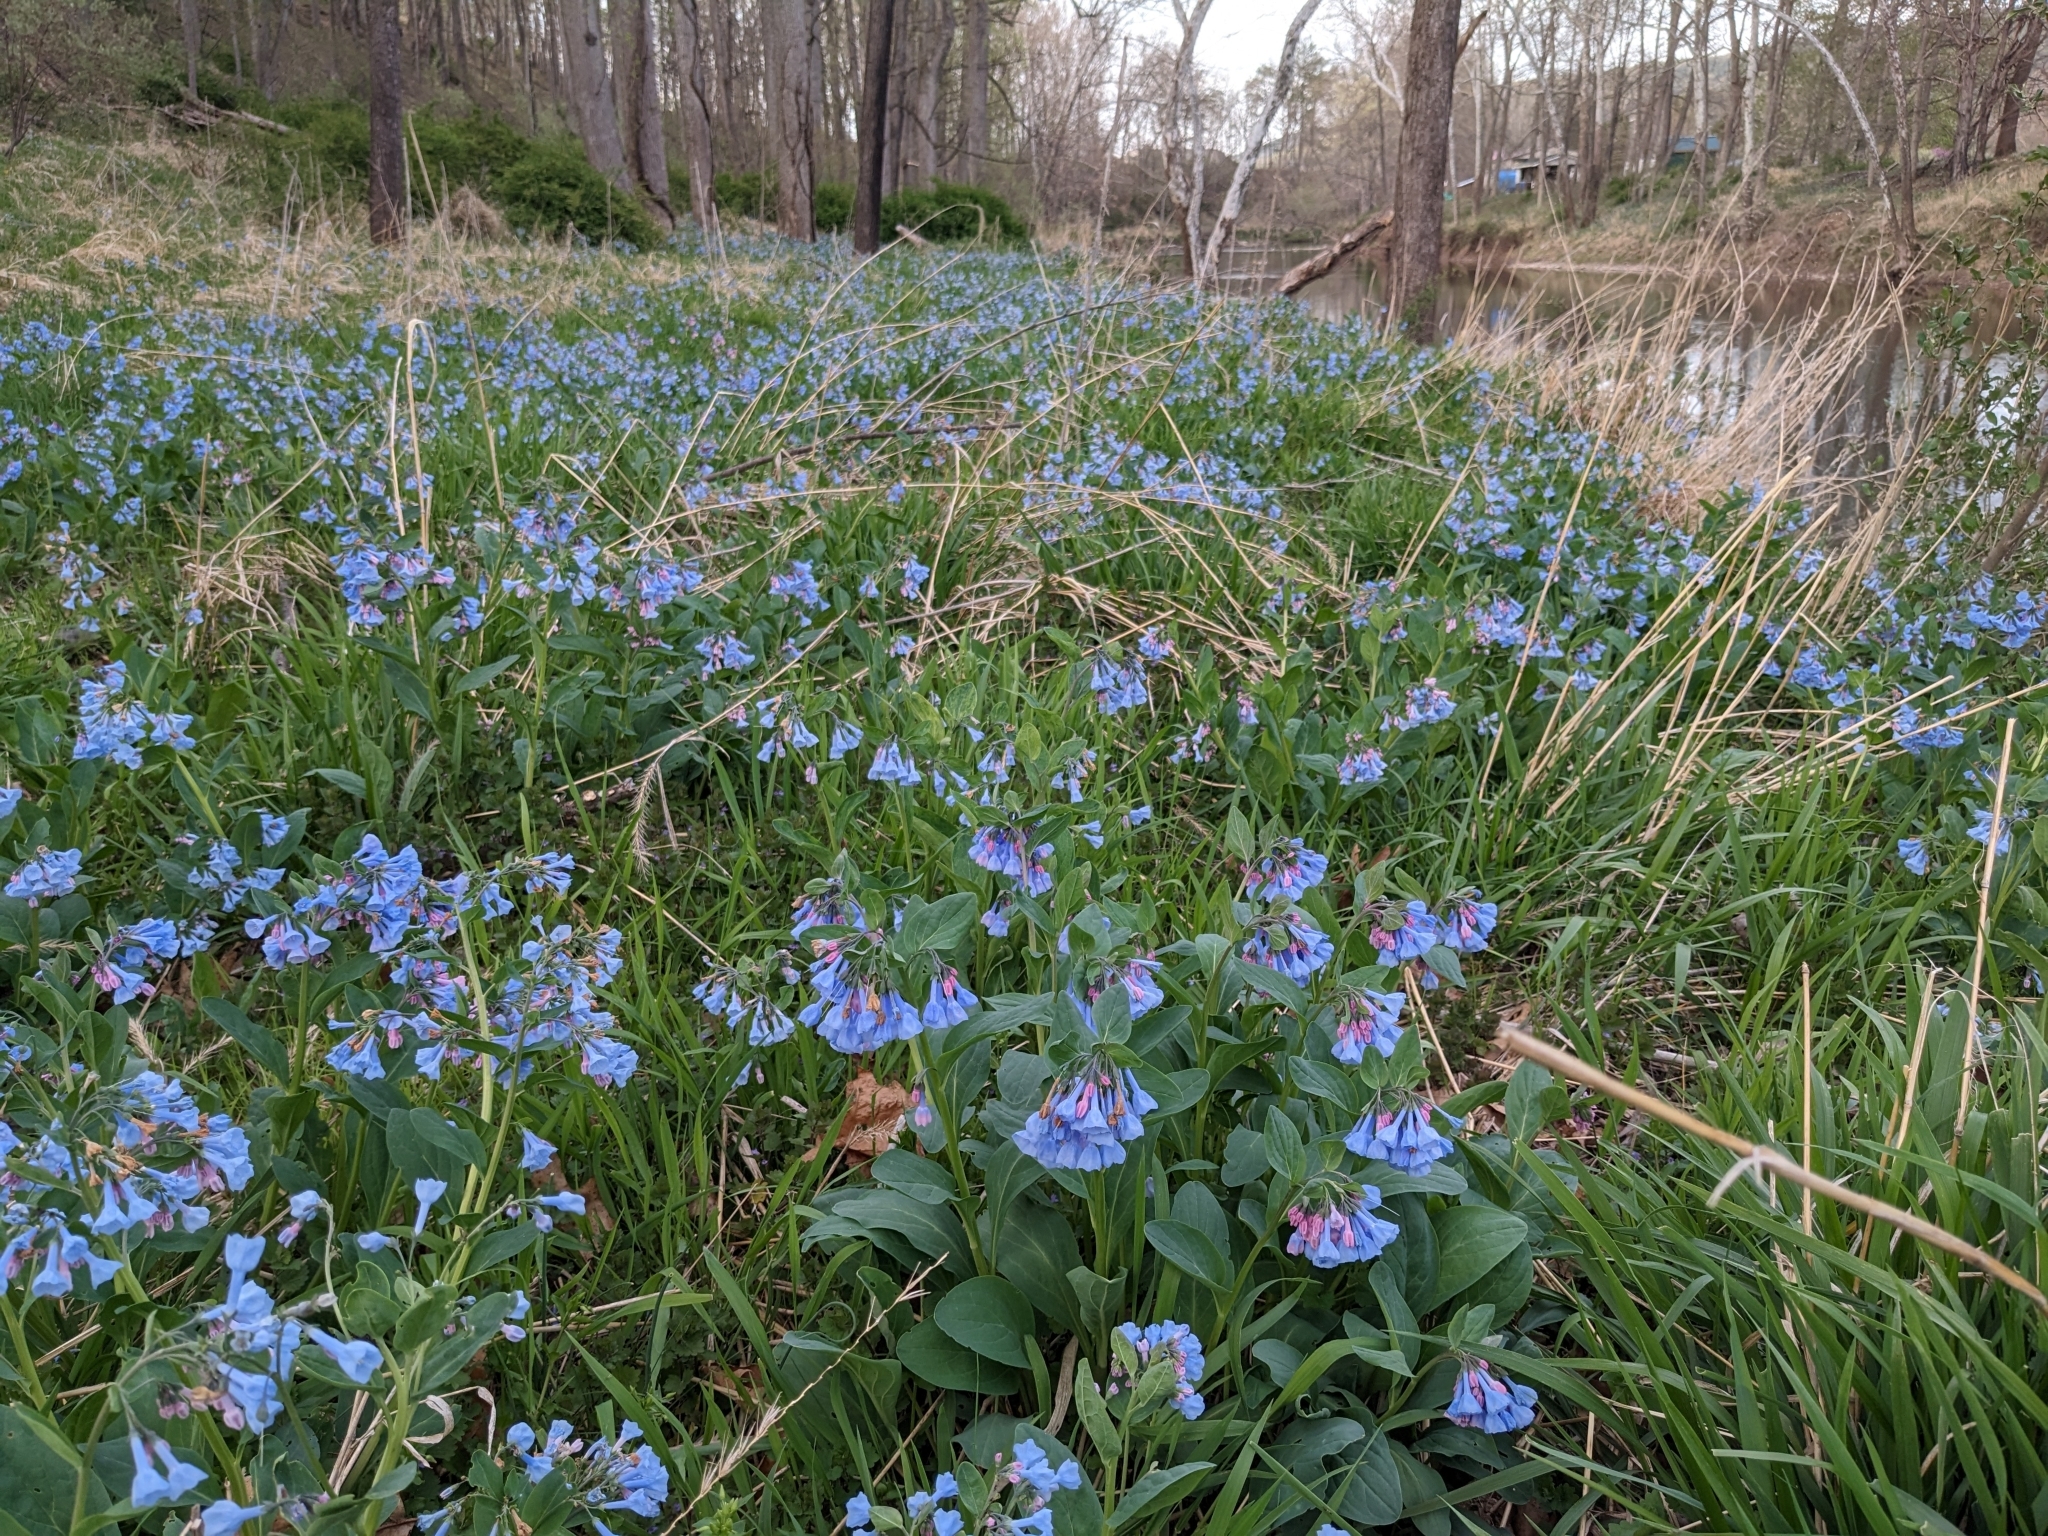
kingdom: Plantae
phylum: Tracheophyta
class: Magnoliopsida
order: Boraginales
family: Boraginaceae
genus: Mertensia
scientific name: Mertensia virginica
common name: Virginia bluebells
